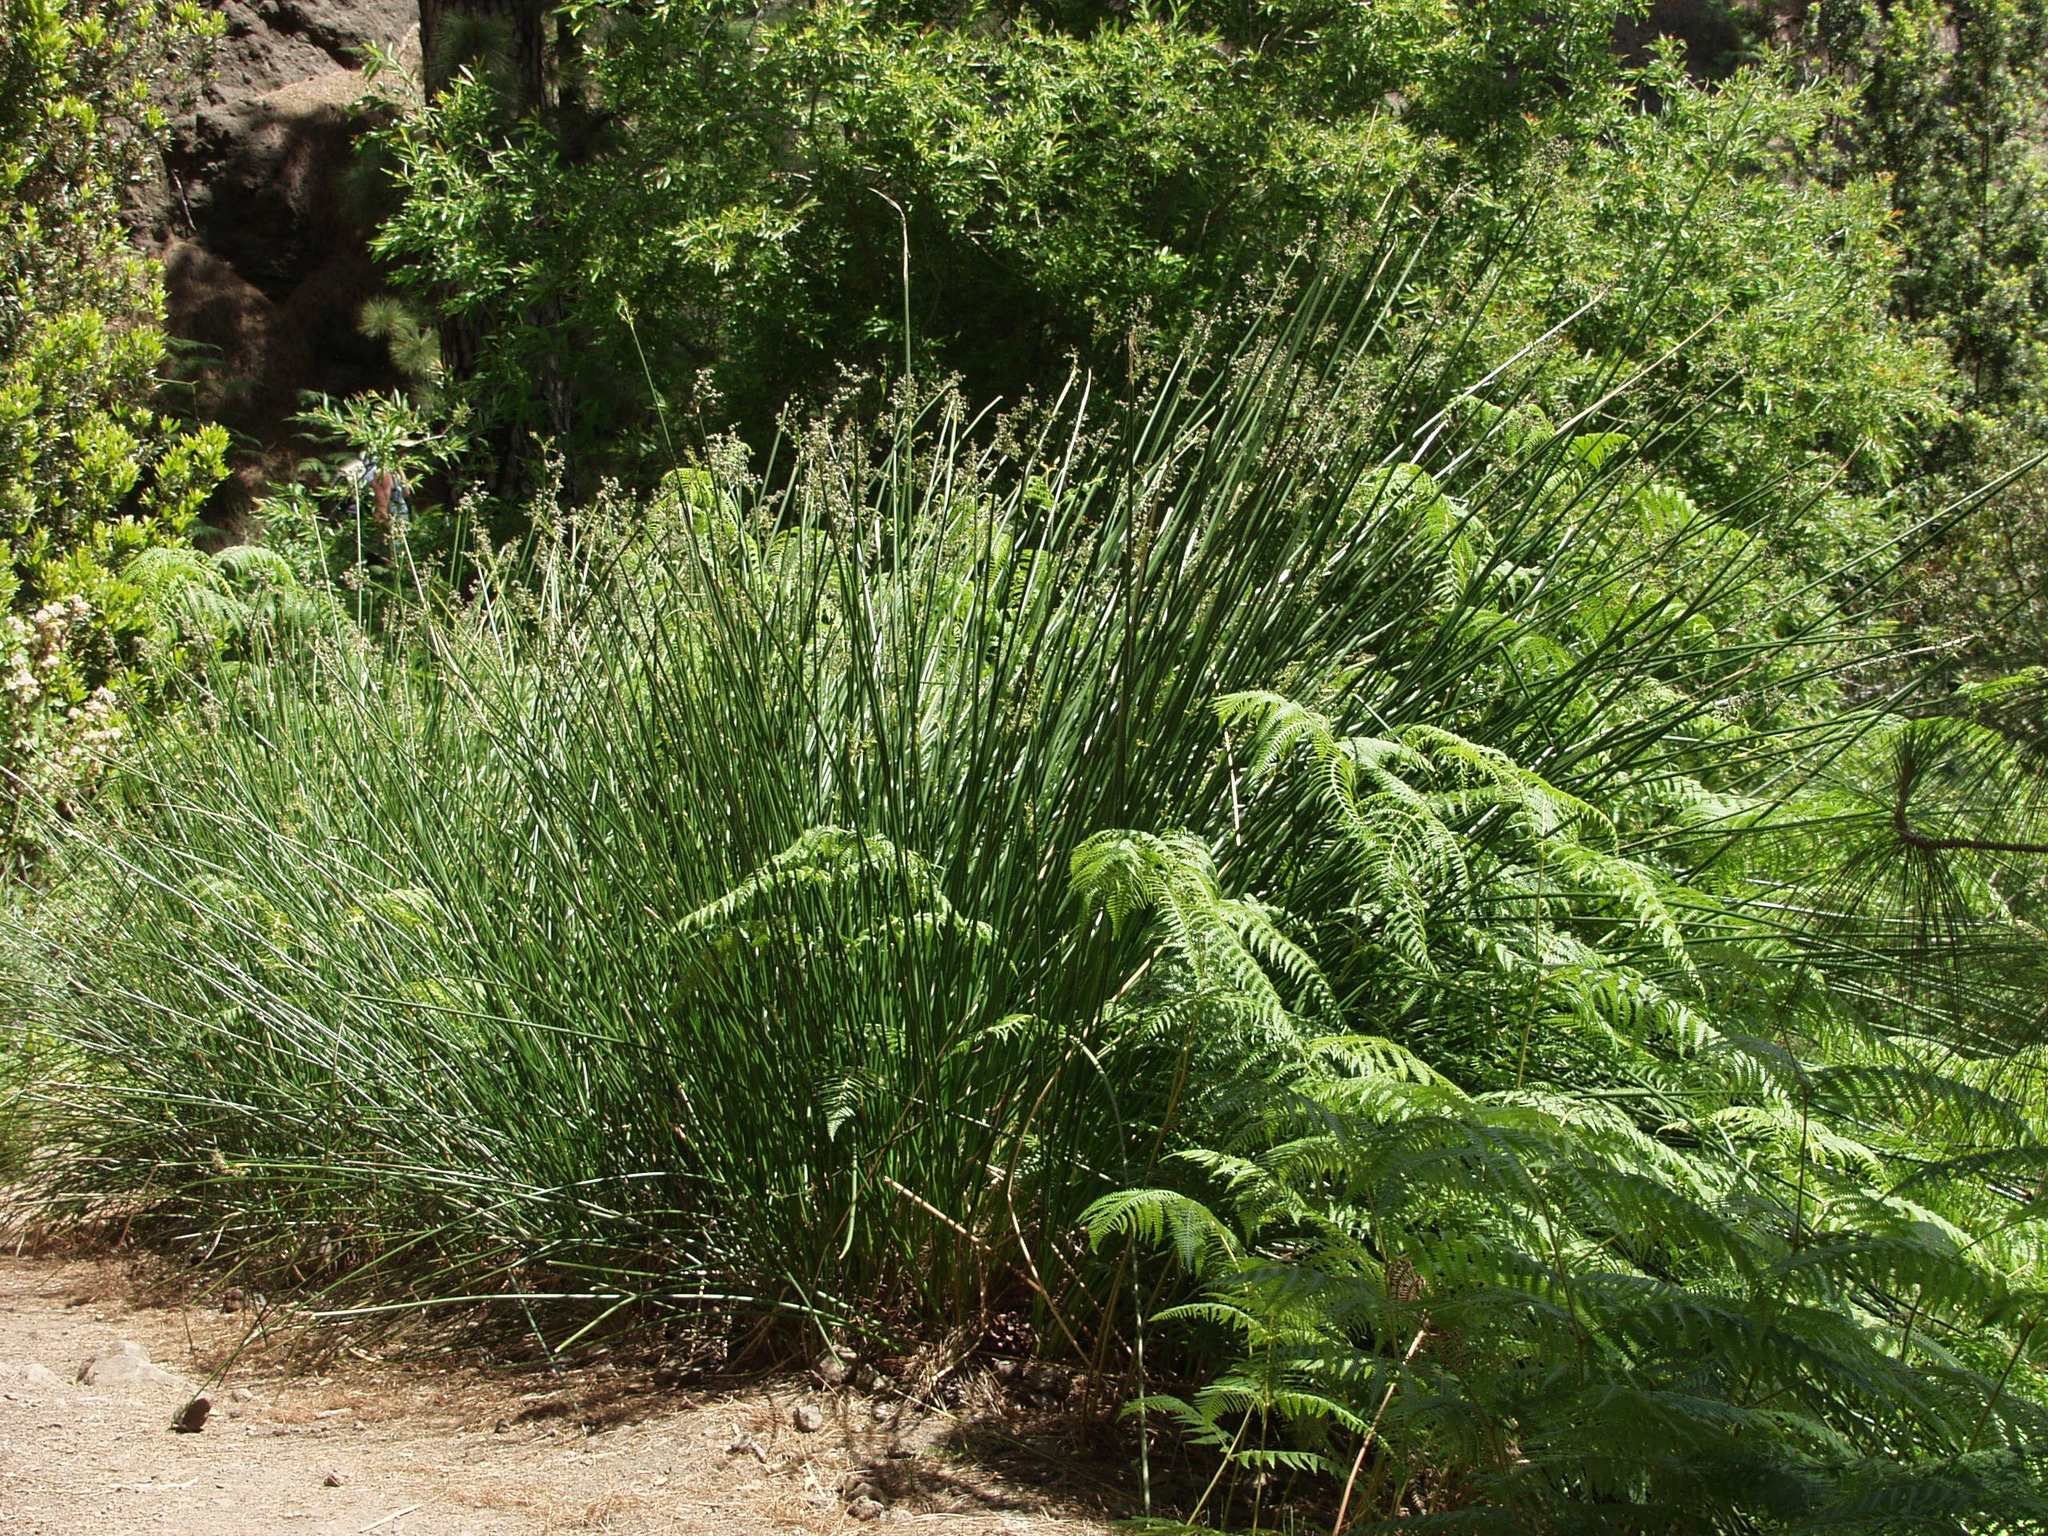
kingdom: Plantae
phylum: Tracheophyta
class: Liliopsida
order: Poales
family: Cyperaceae
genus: Scirpoides
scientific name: Scirpoides holoschoenus
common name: Round-headed club-rush
